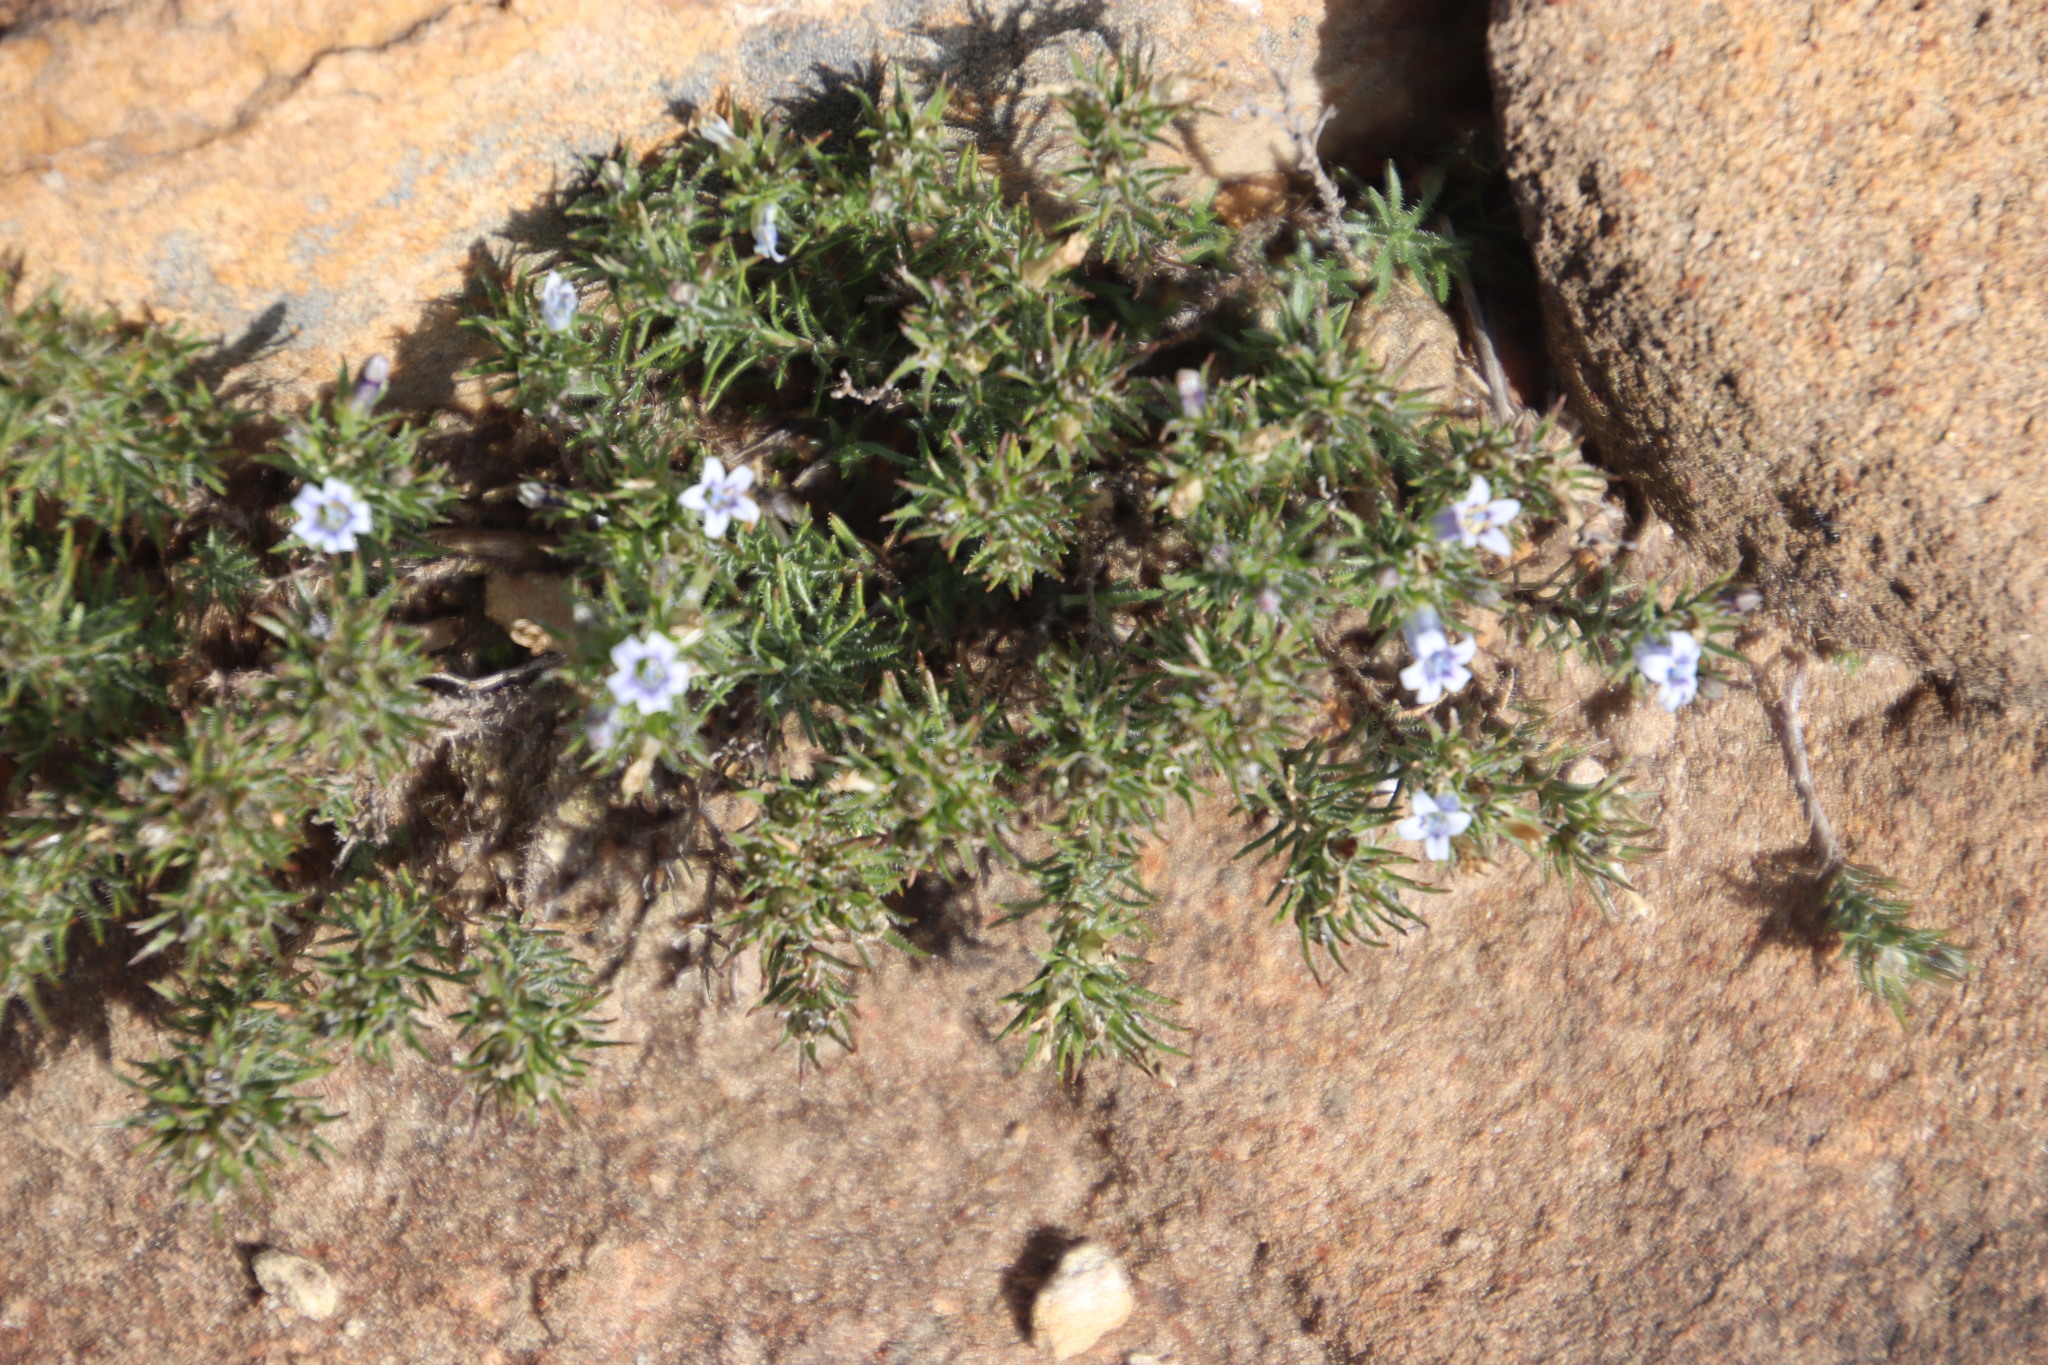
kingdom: Plantae
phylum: Tracheophyta
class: Magnoliopsida
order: Asterales
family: Campanulaceae
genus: Wahlenbergia
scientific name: Wahlenbergia lycopodioides
